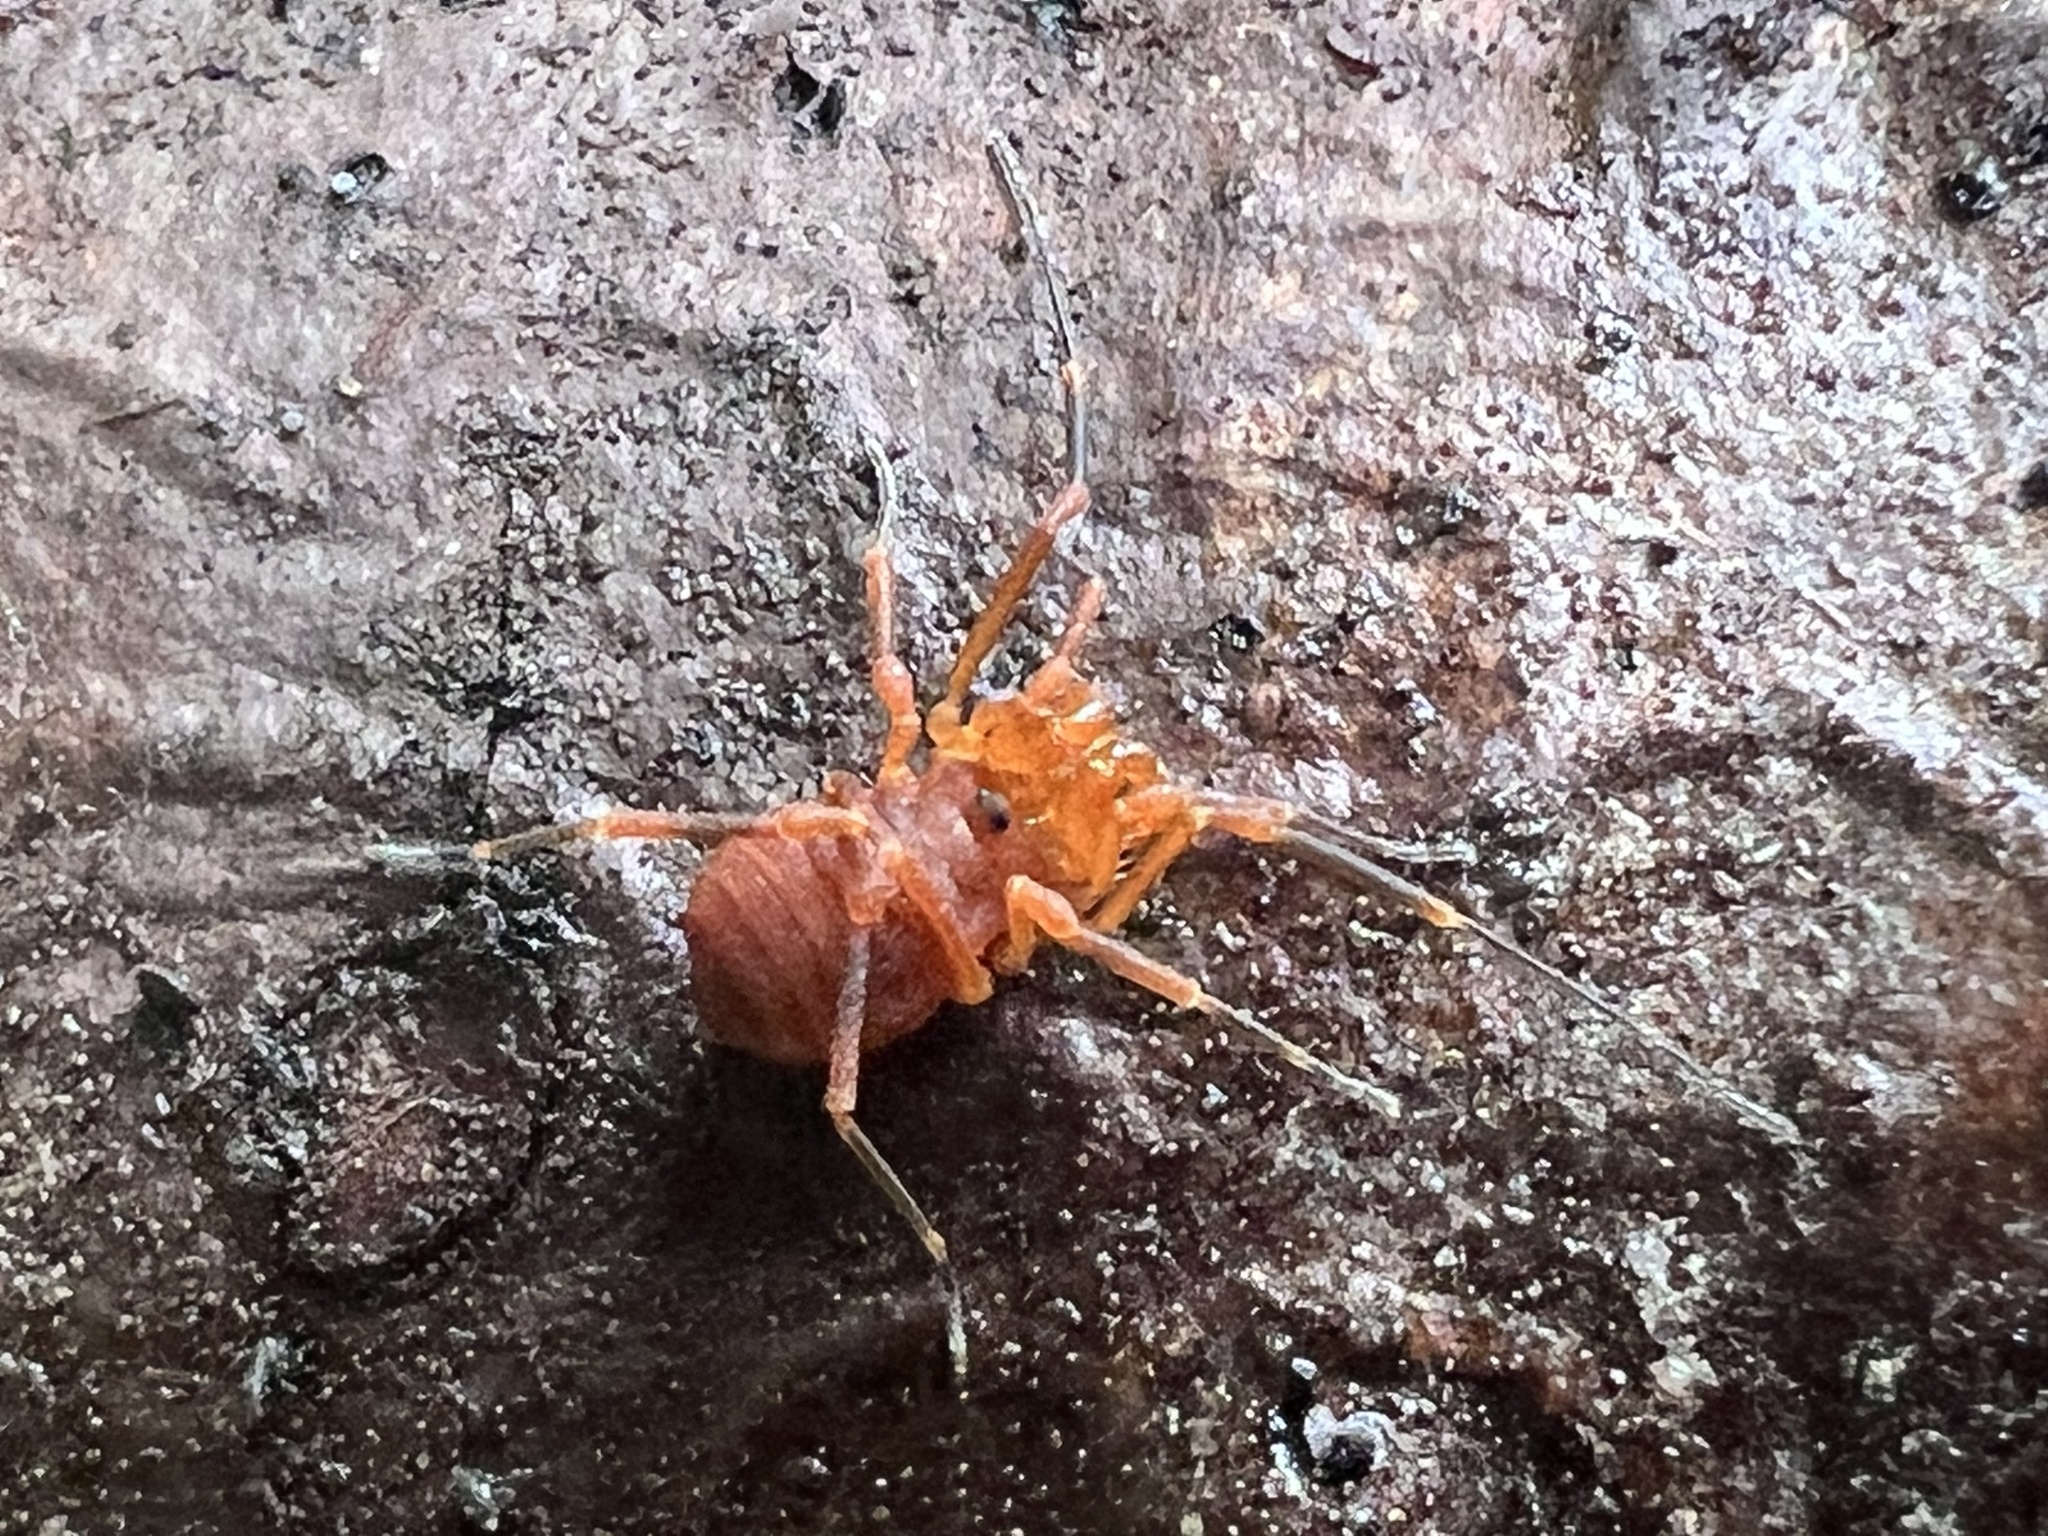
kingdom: Animalia
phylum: Arthropoda
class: Arachnida
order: Opiliones
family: Paranonychidae
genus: Sclerobunus
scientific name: Sclerobunus nondimorphicus
